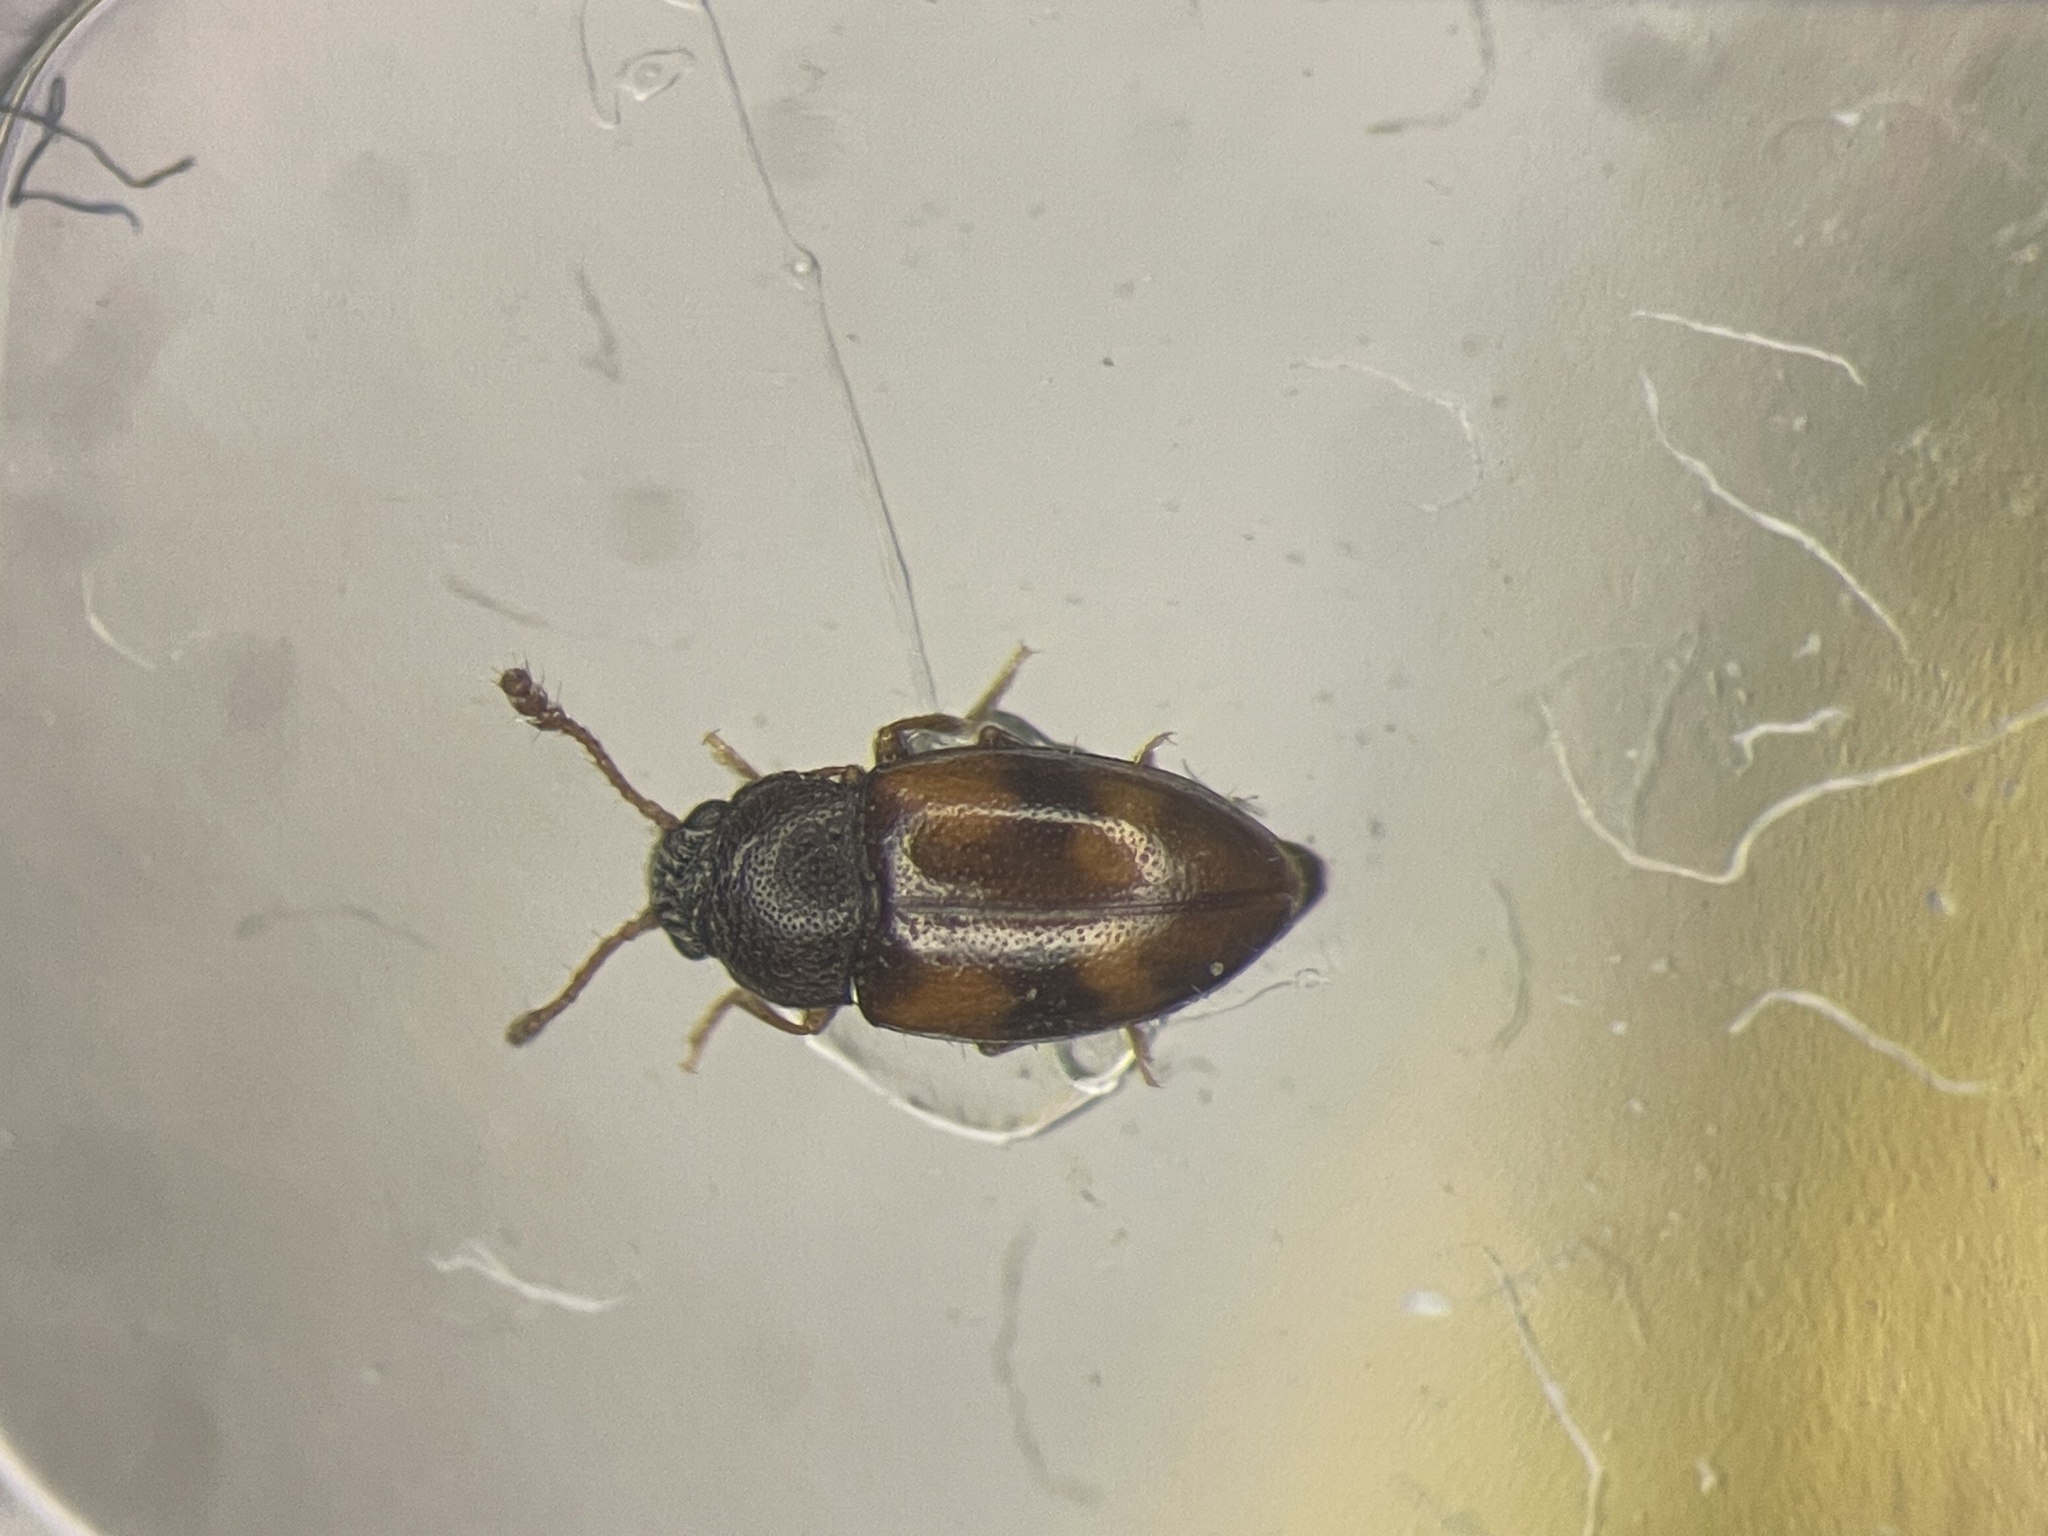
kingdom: Animalia
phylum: Arthropoda
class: Insecta
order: Coleoptera
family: Erotylidae
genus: Toramus
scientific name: Toramus pulchellus
